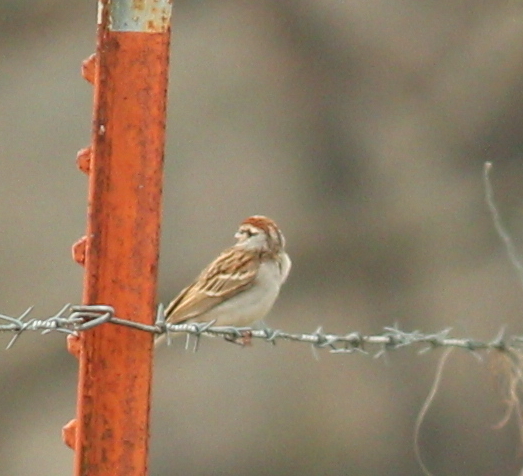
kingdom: Animalia
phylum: Chordata
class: Aves
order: Passeriformes
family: Passerellidae
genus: Spizella
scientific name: Spizella passerina
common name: Chipping sparrow
